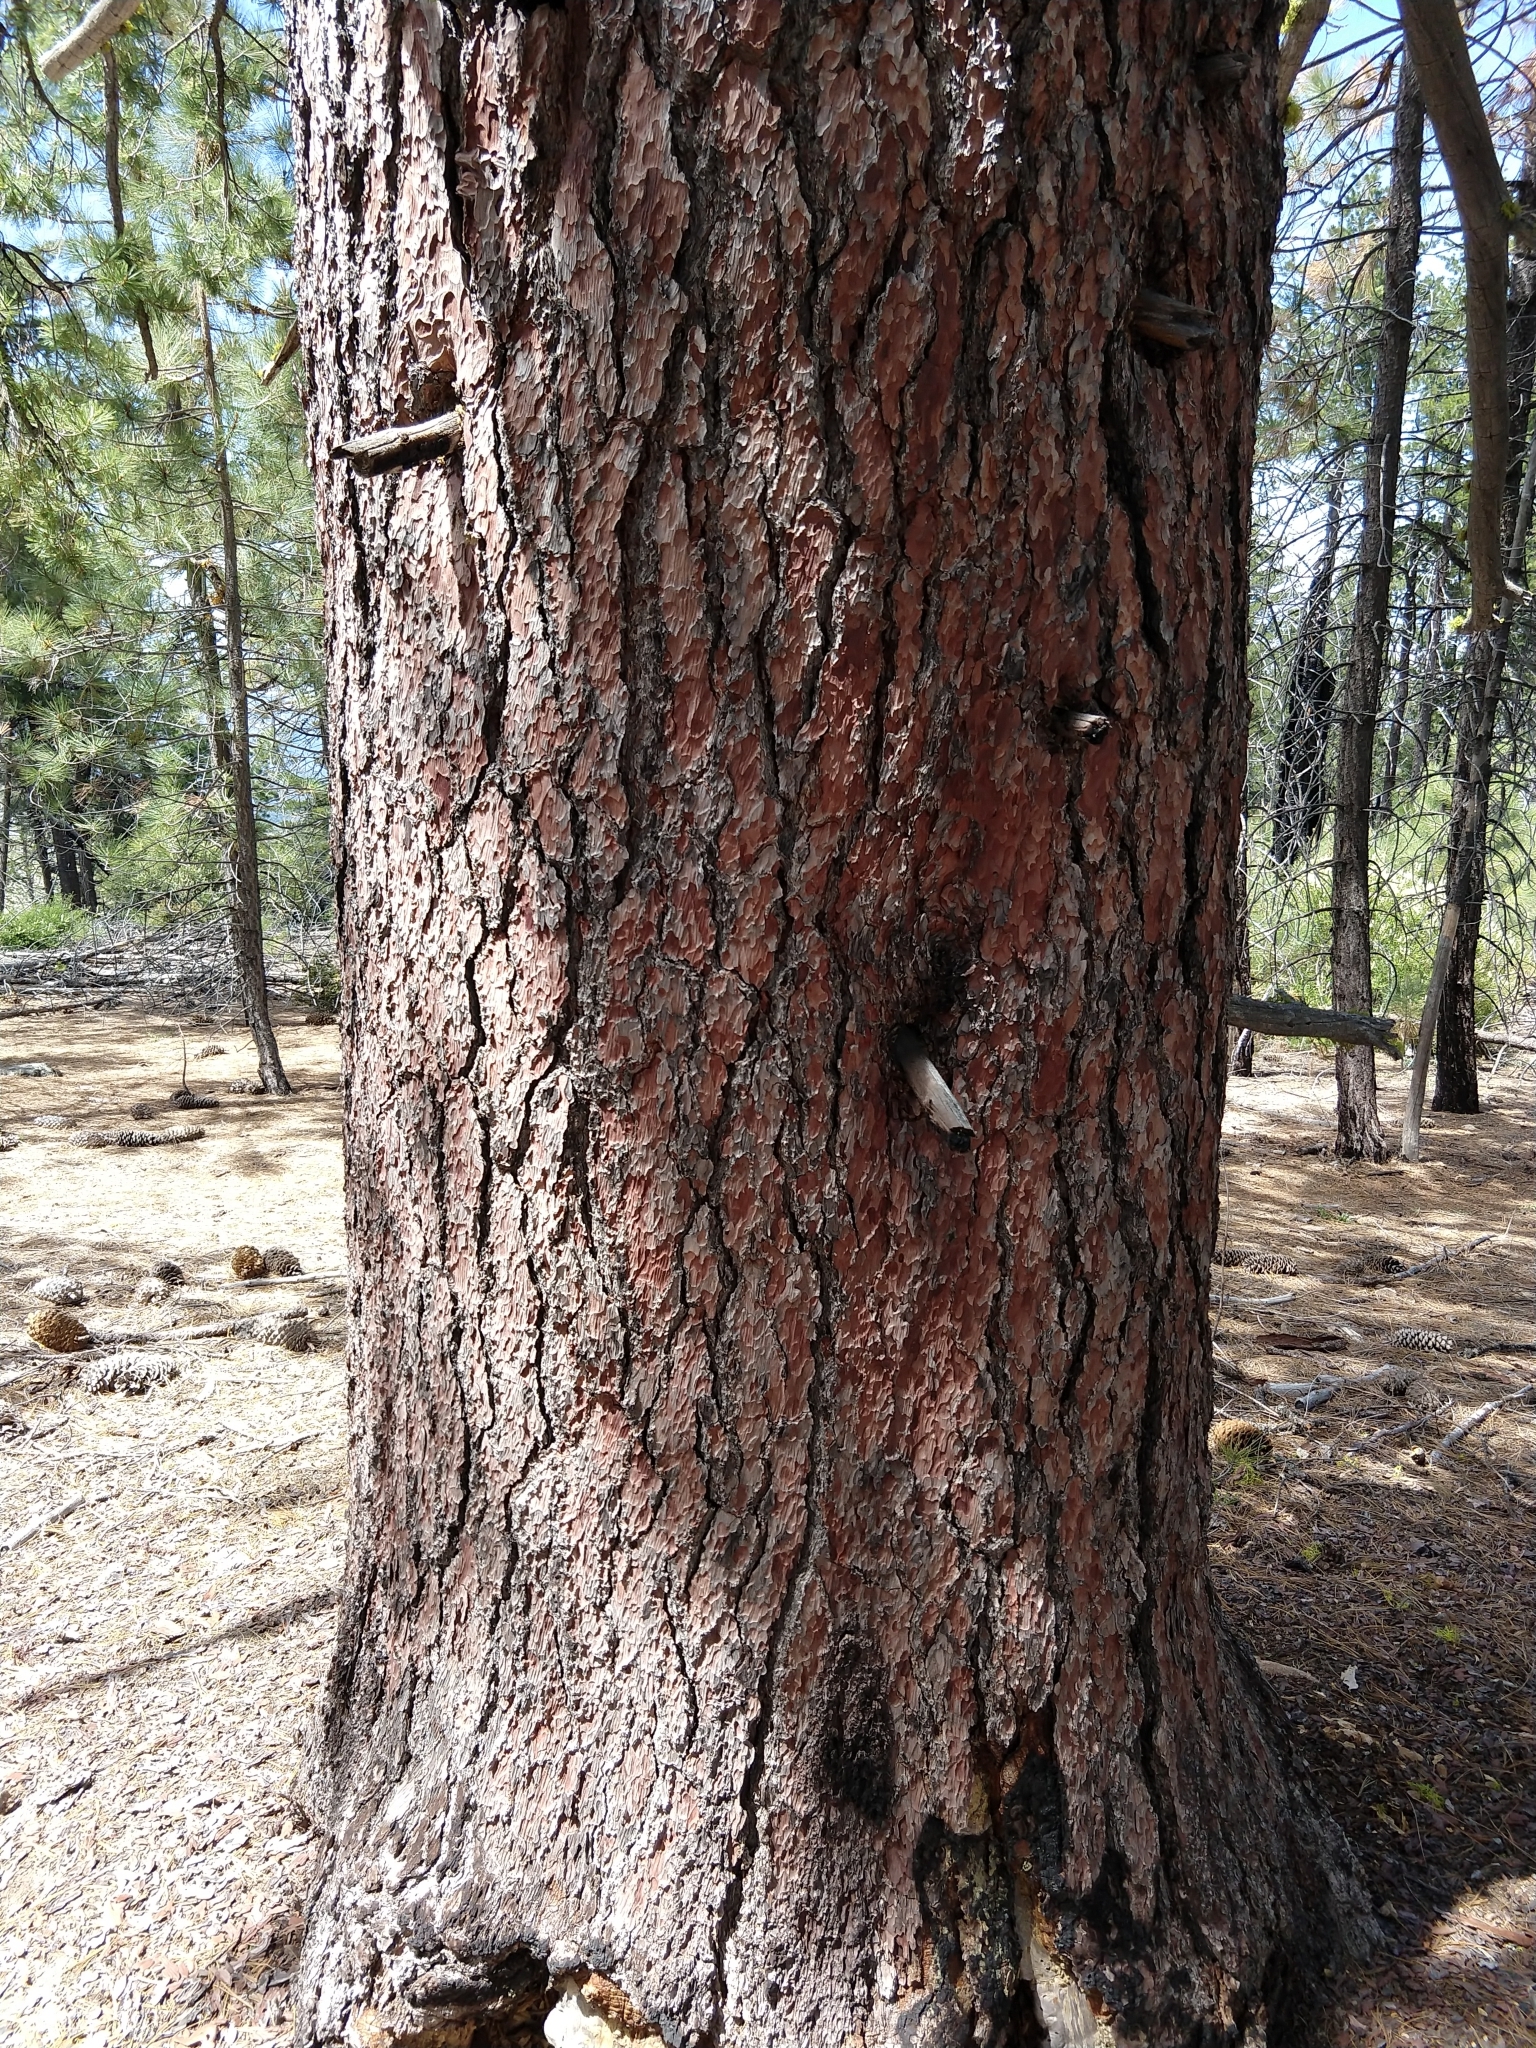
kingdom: Plantae
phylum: Tracheophyta
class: Pinopsida
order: Pinales
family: Pinaceae
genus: Pinus
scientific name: Pinus lambertiana
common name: Sugar pine
